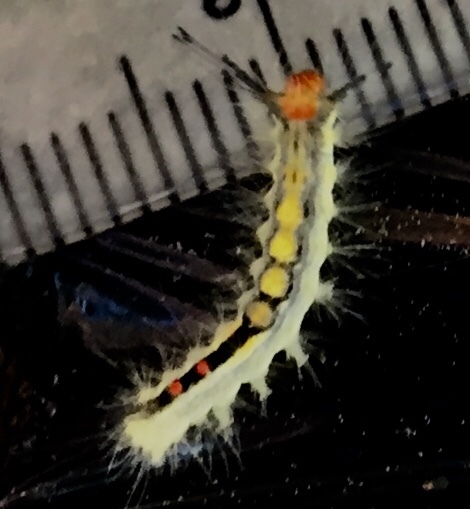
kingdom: Animalia
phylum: Arthropoda
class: Insecta
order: Lepidoptera
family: Erebidae
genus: Orgyia
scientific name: Orgyia leucostigma
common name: White-marked tussock moth
